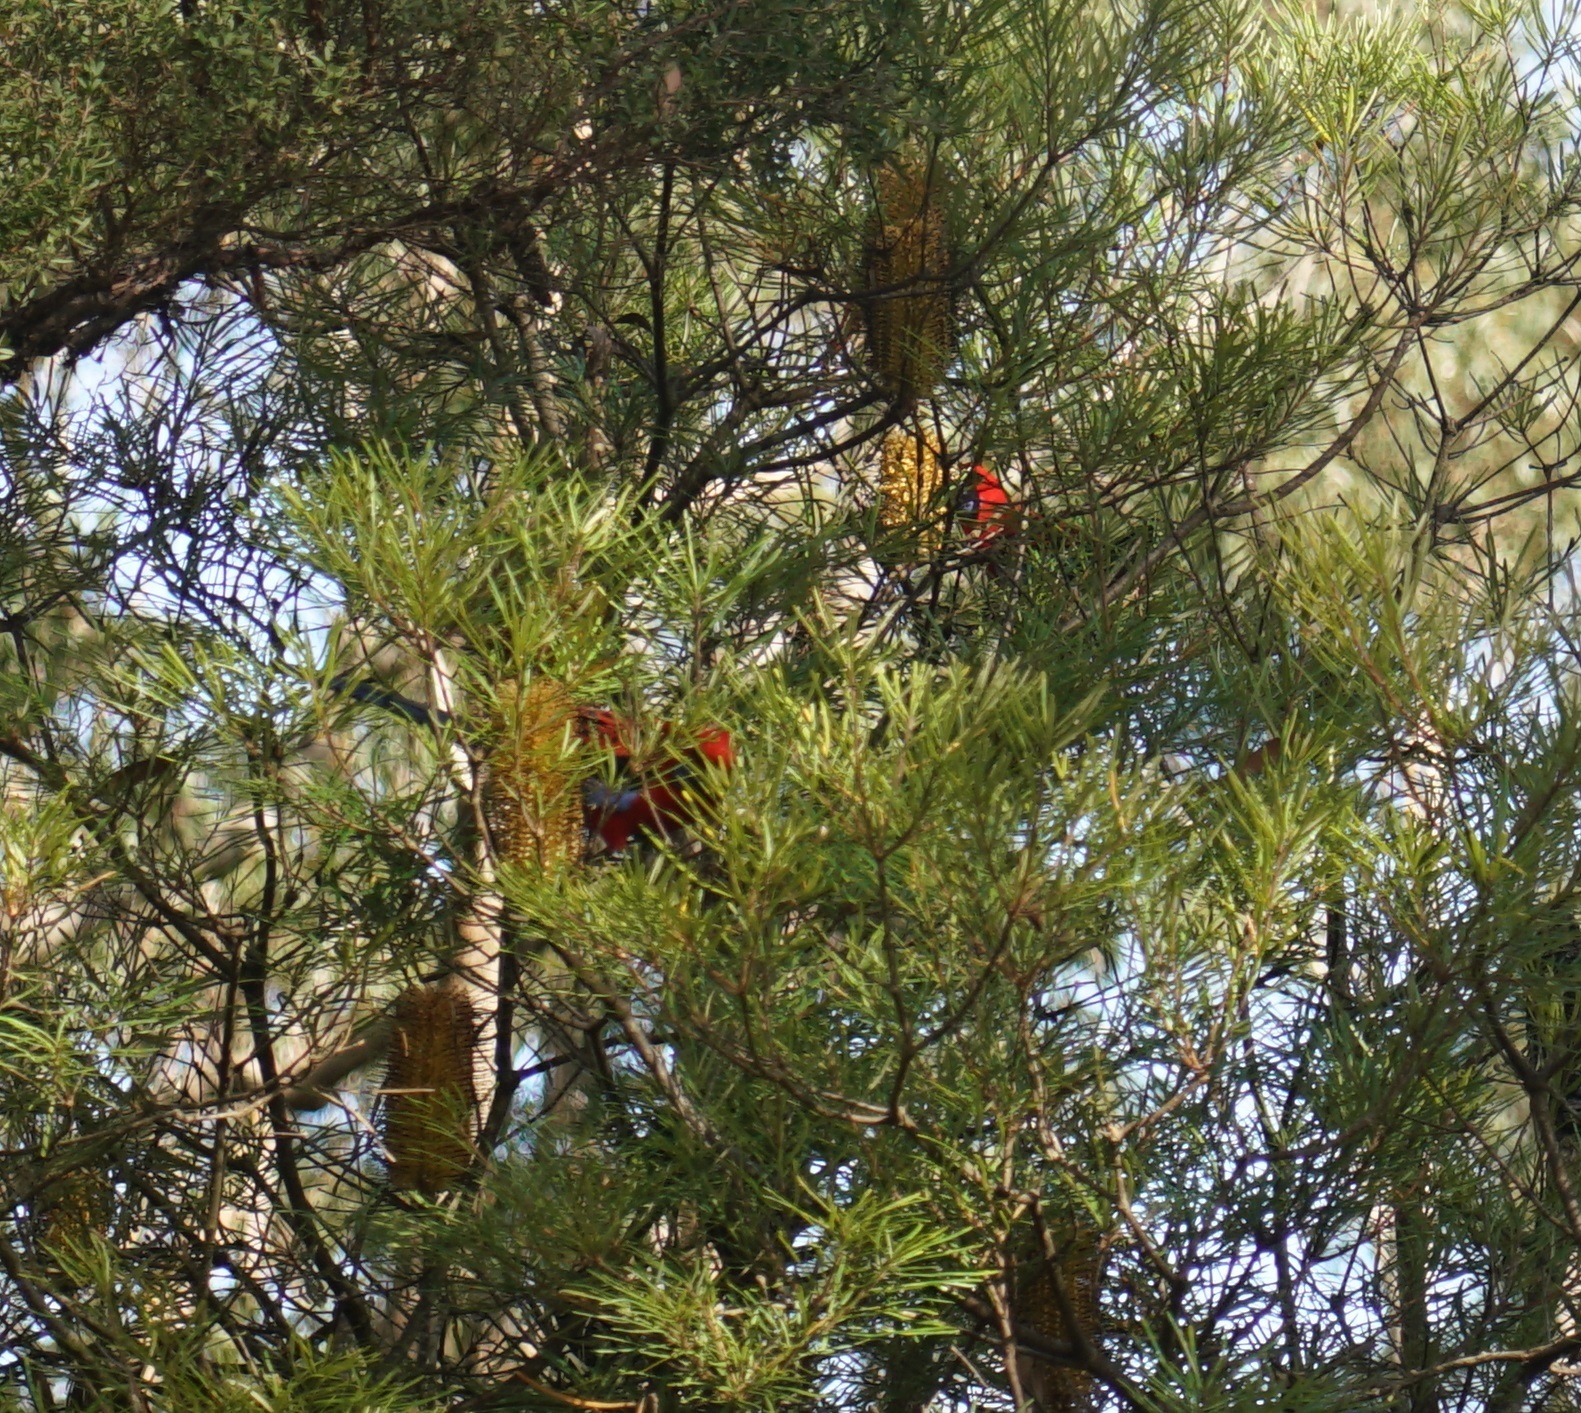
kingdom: Animalia
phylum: Chordata
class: Aves
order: Psittaciformes
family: Psittacidae
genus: Platycercus
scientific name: Platycercus elegans
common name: Crimson rosella
